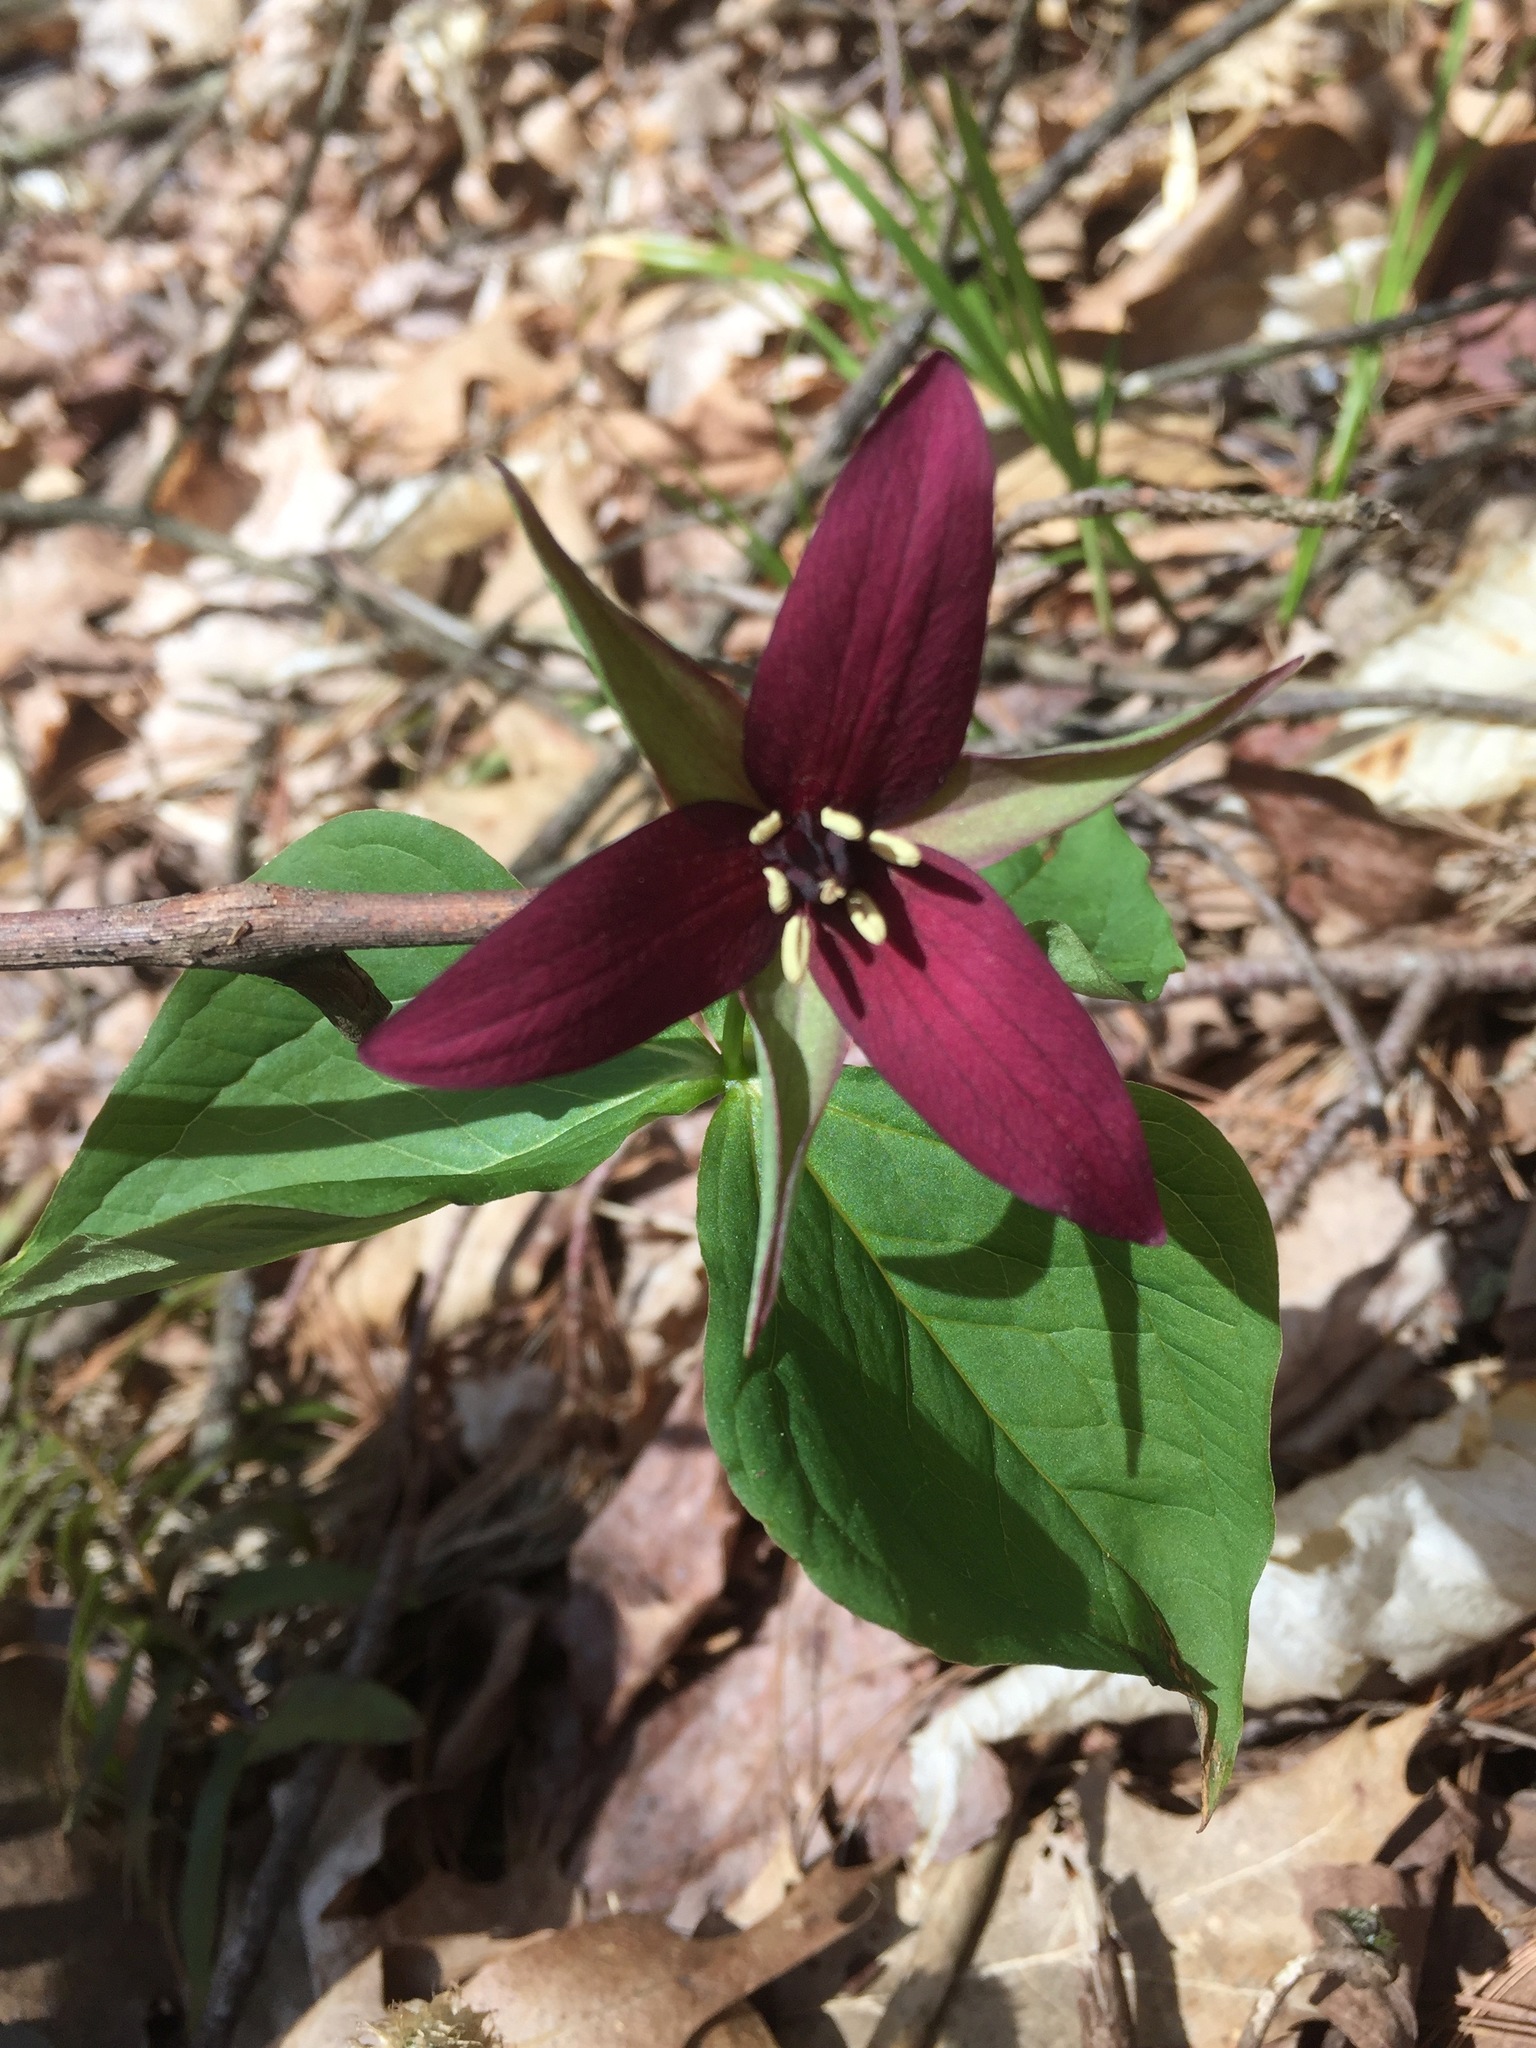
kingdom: Plantae
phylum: Tracheophyta
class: Liliopsida
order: Liliales
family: Melanthiaceae
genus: Trillium
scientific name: Trillium erectum
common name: Purple trillium
